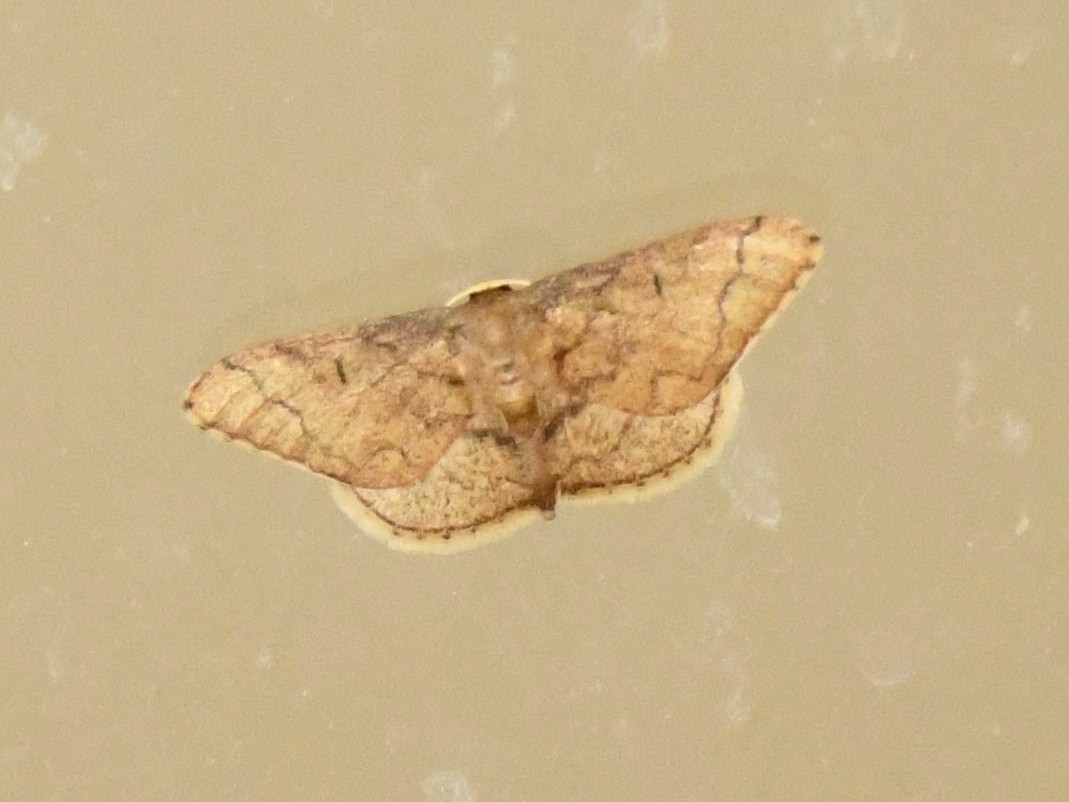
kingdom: Animalia
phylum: Arthropoda
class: Insecta
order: Lepidoptera
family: Geometridae
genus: Idaea
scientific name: Idaea amplipennis
